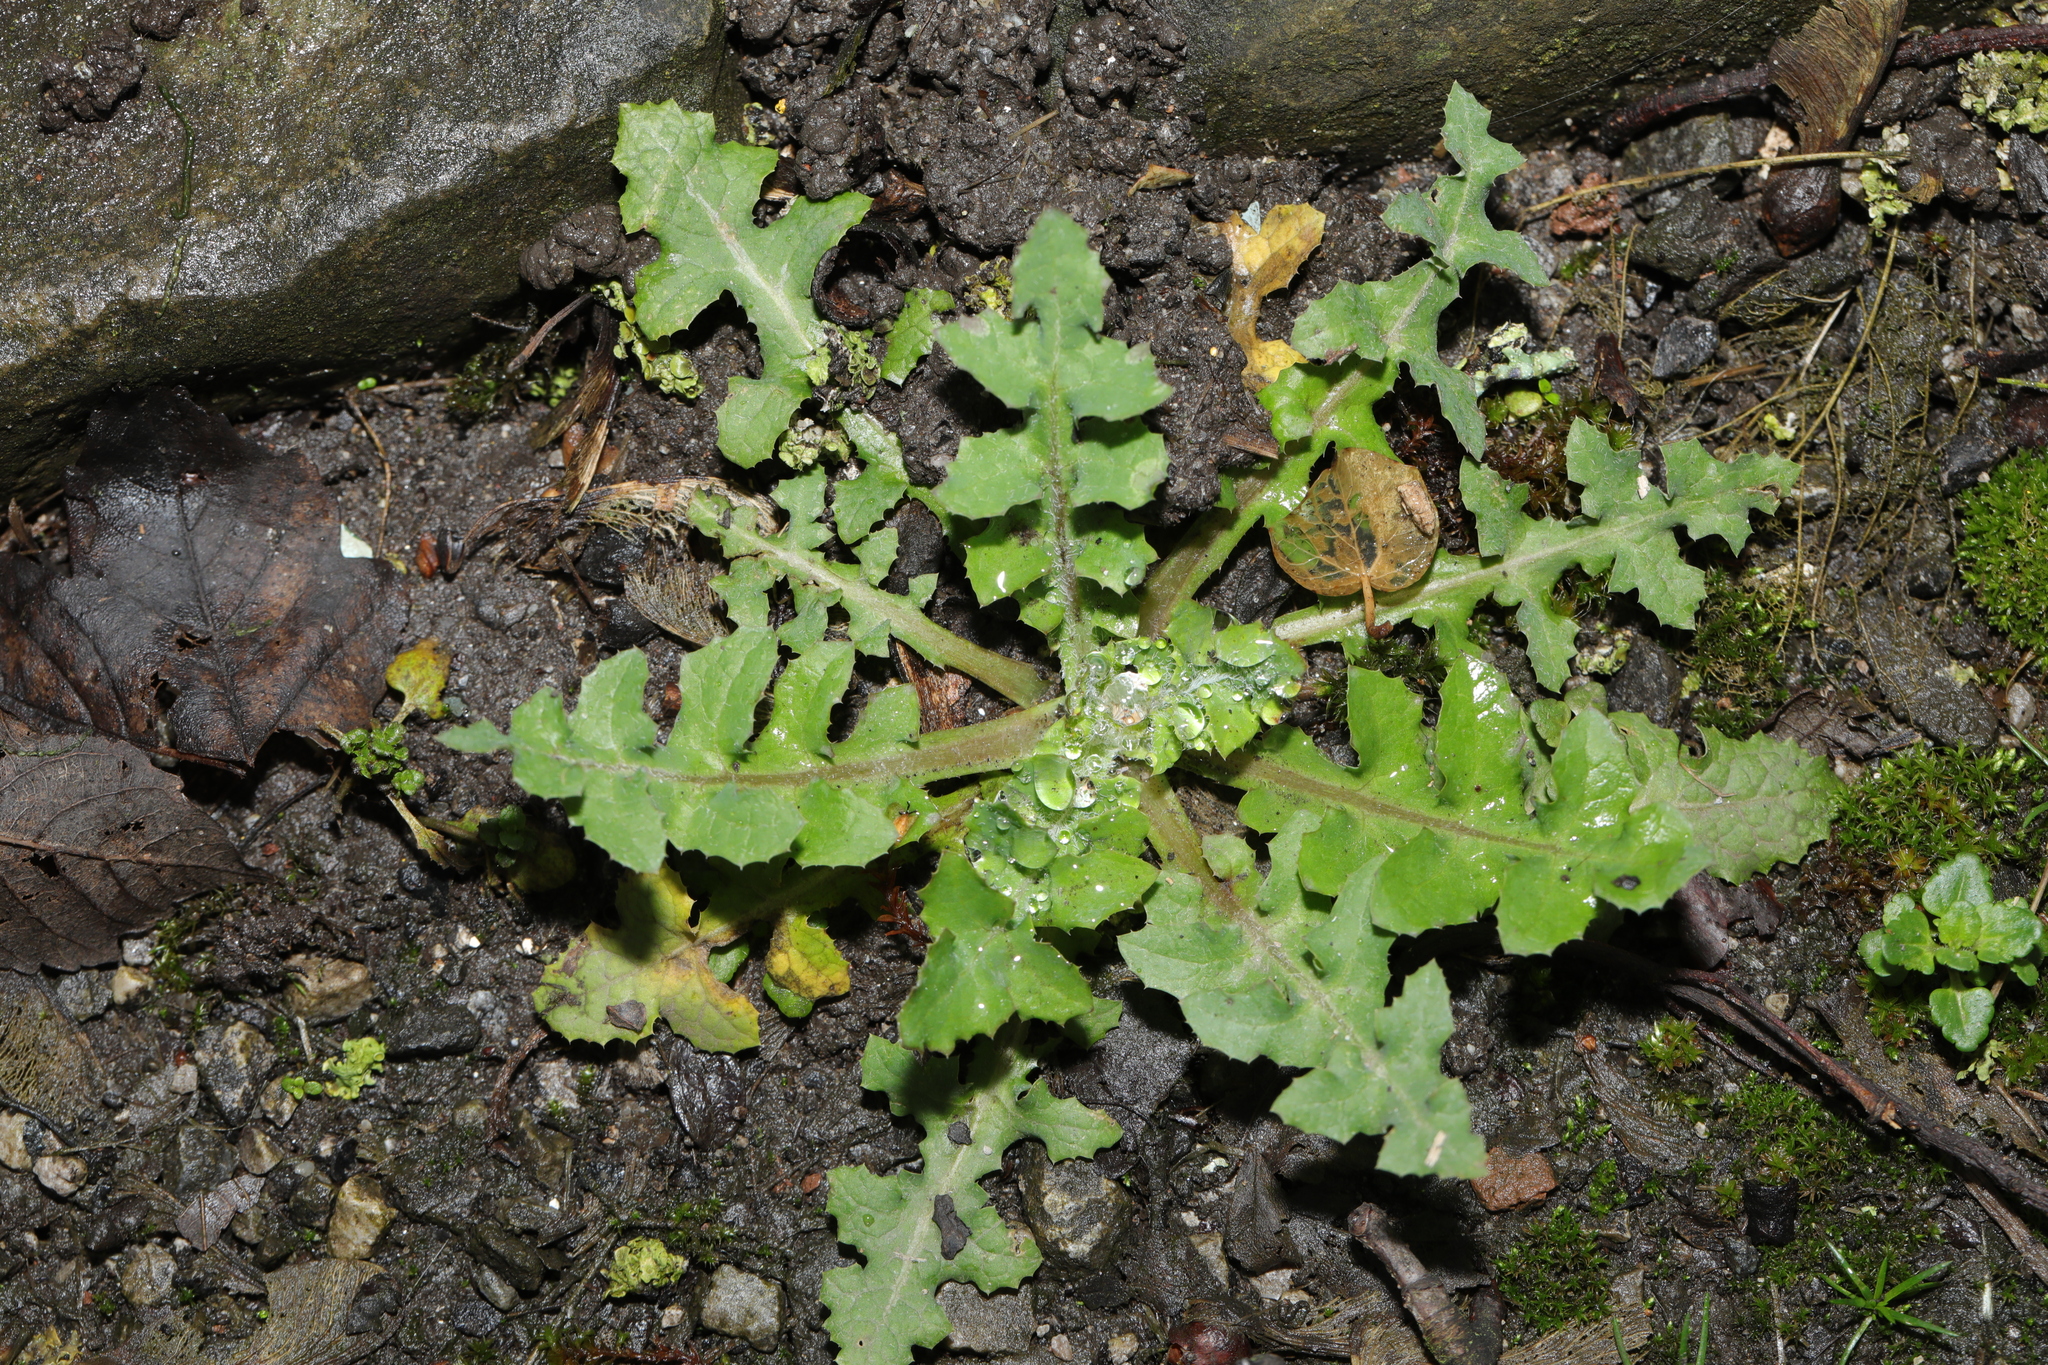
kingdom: Plantae
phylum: Tracheophyta
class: Magnoliopsida
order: Asterales
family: Asteraceae
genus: Sonchus
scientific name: Sonchus oleraceus
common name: Common sowthistle
